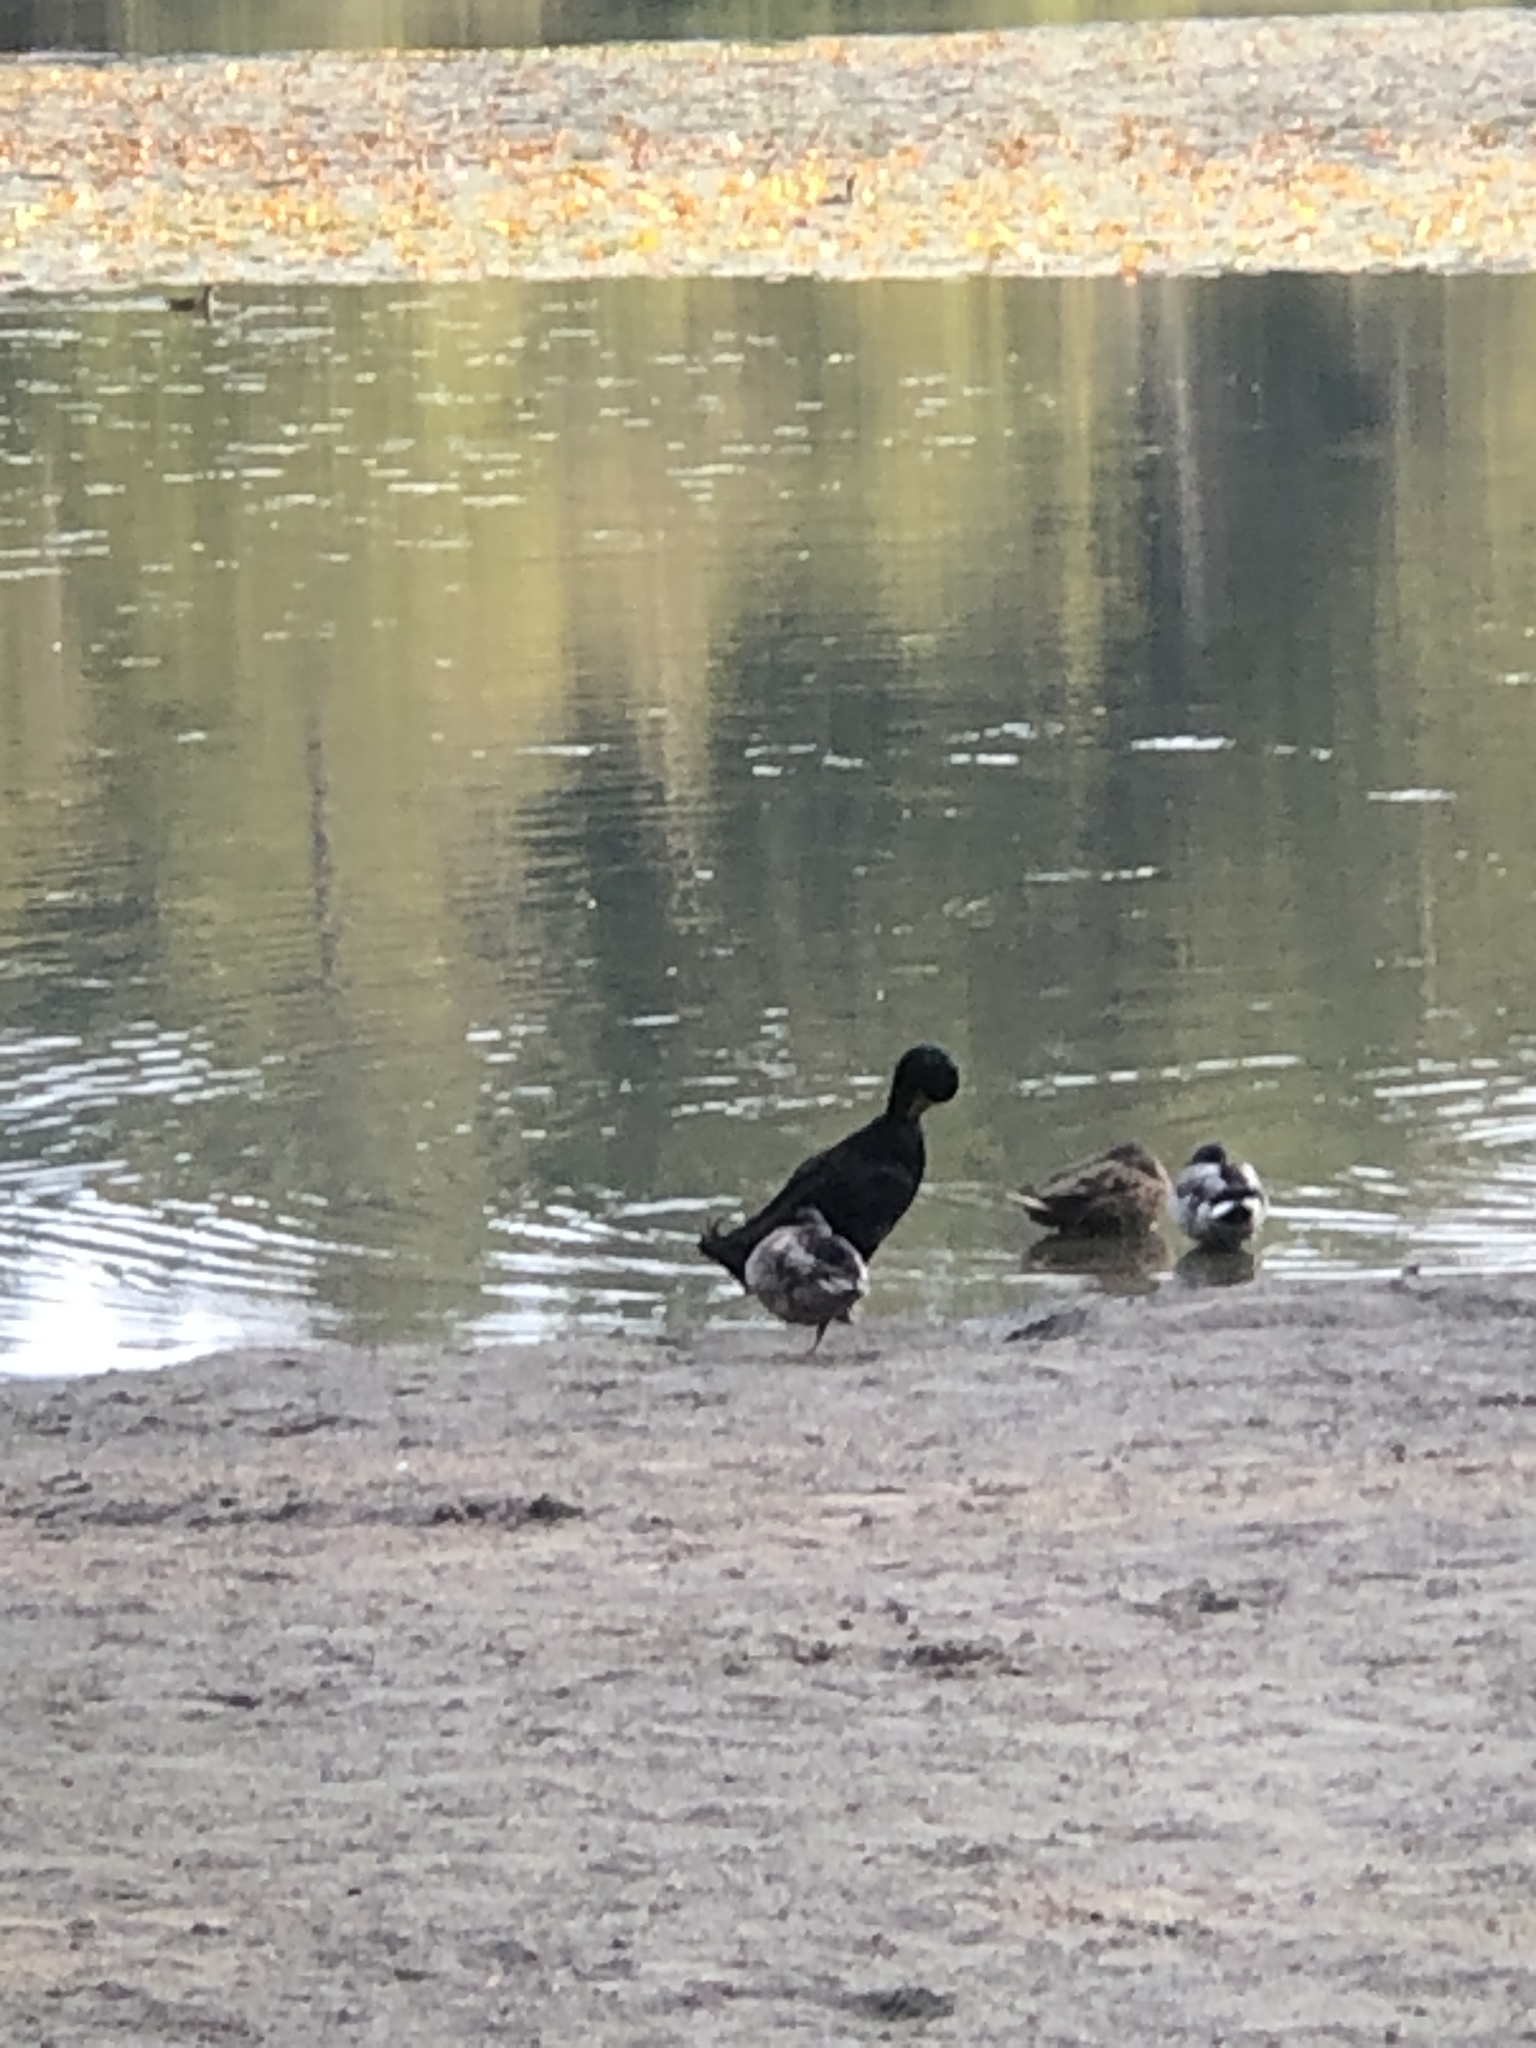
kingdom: Animalia
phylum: Chordata
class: Aves
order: Anseriformes
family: Anatidae
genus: Anas
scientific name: Anas platyrhynchos
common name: Mallard
